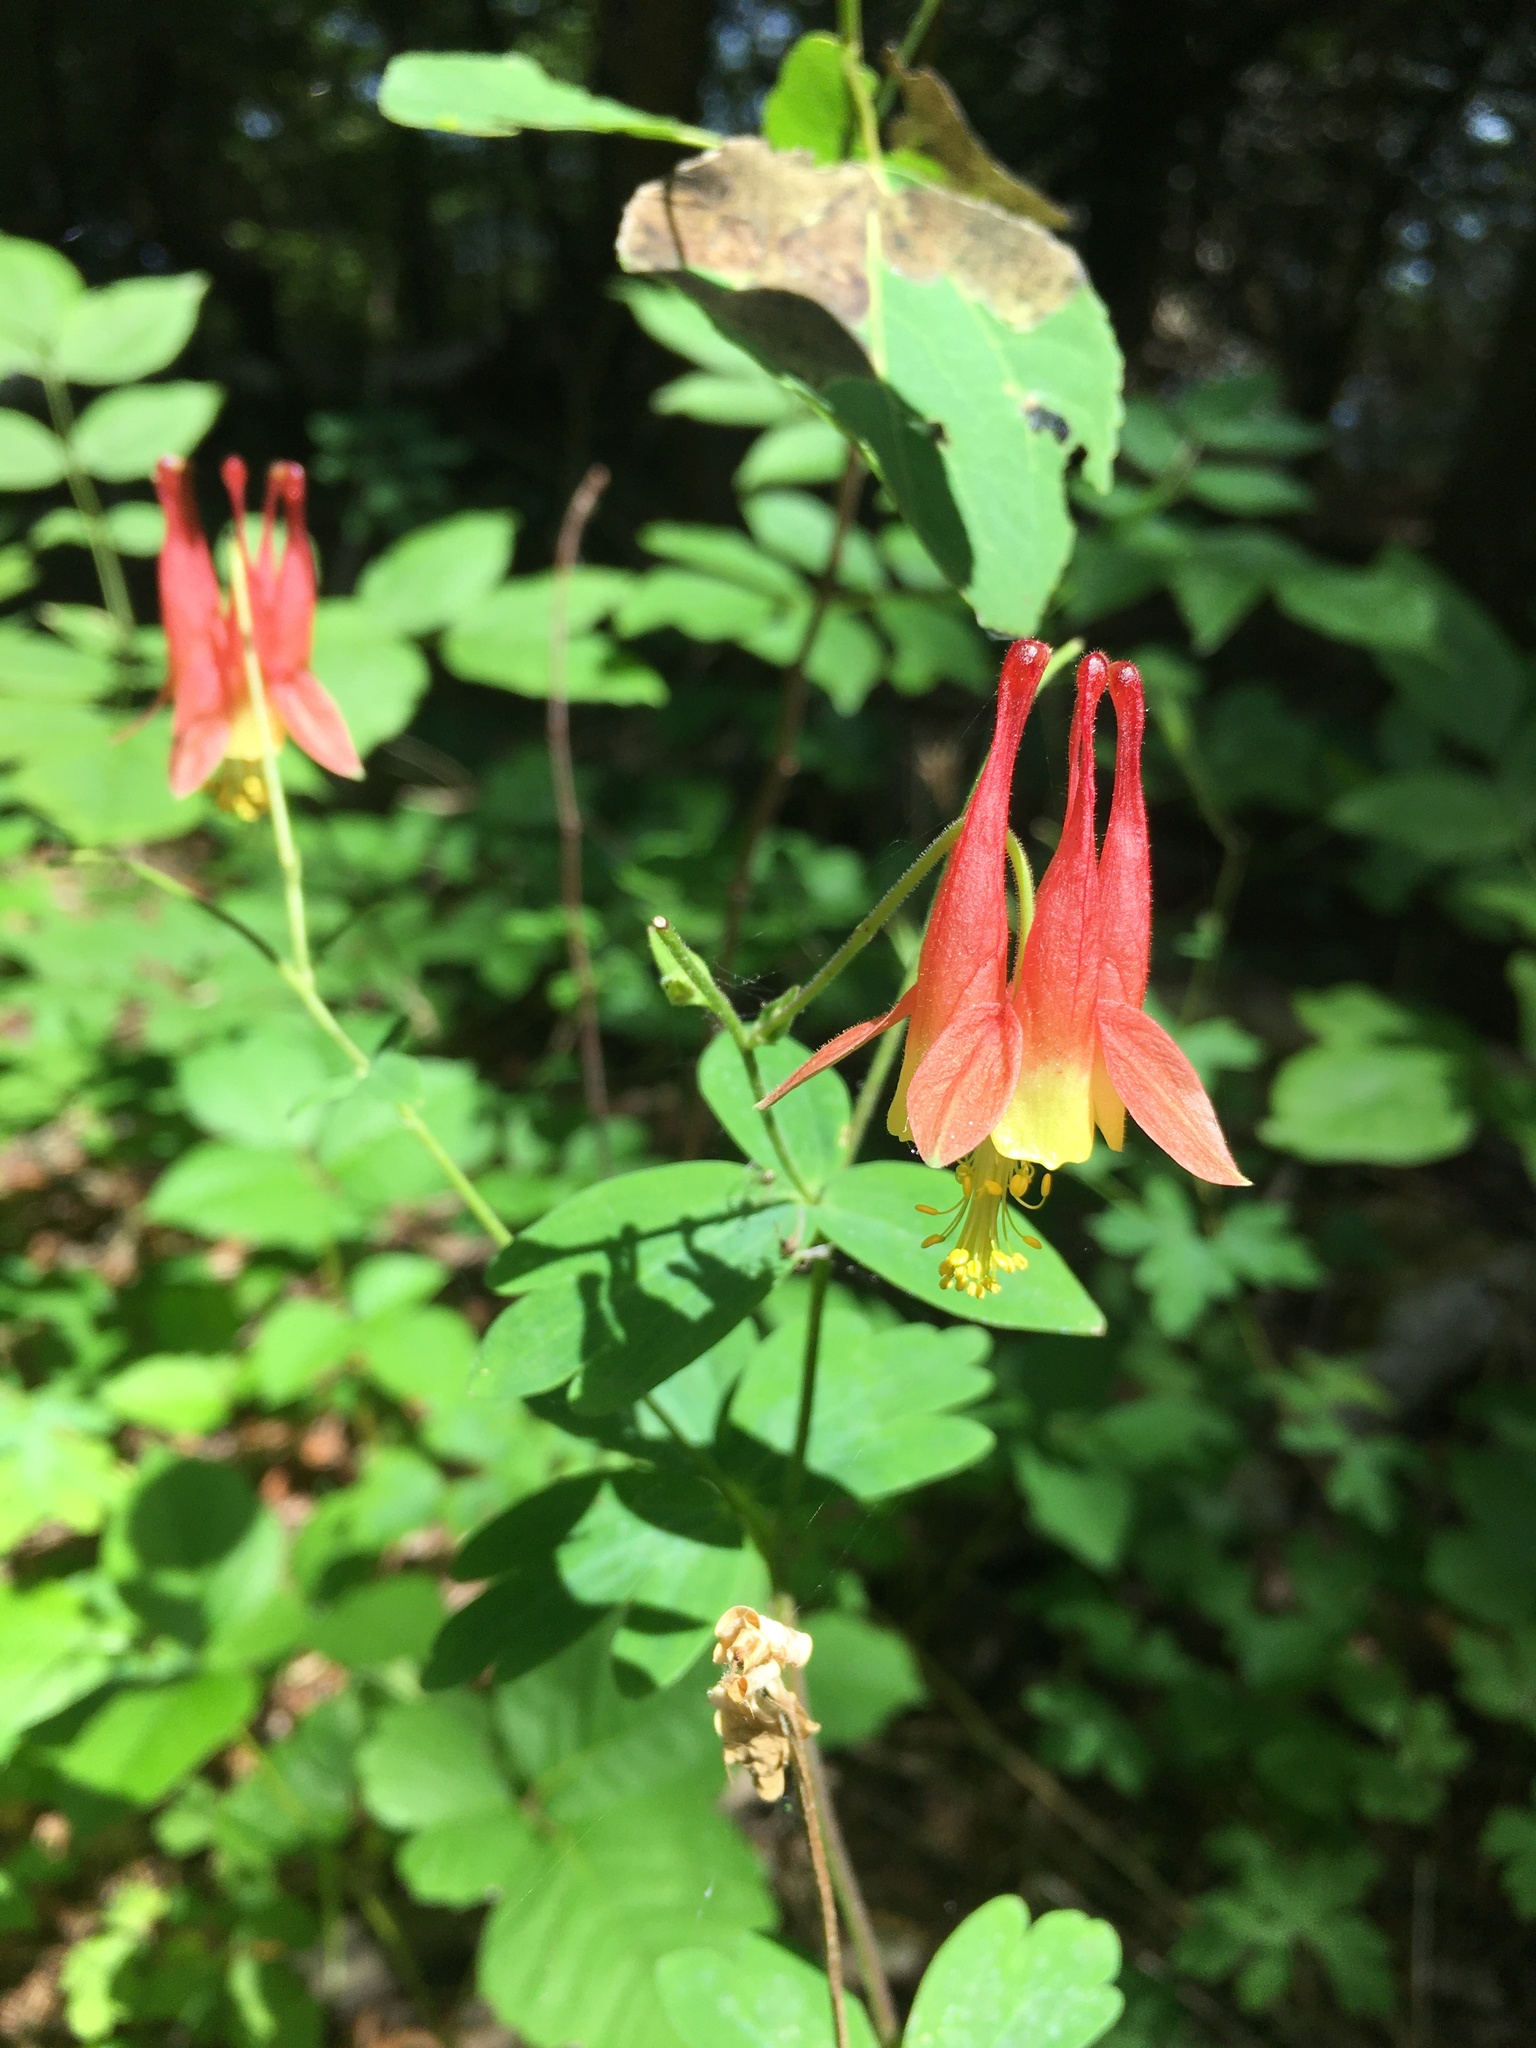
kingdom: Plantae
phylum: Tracheophyta
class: Magnoliopsida
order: Ranunculales
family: Ranunculaceae
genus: Aquilegia
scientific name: Aquilegia canadensis
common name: American columbine
